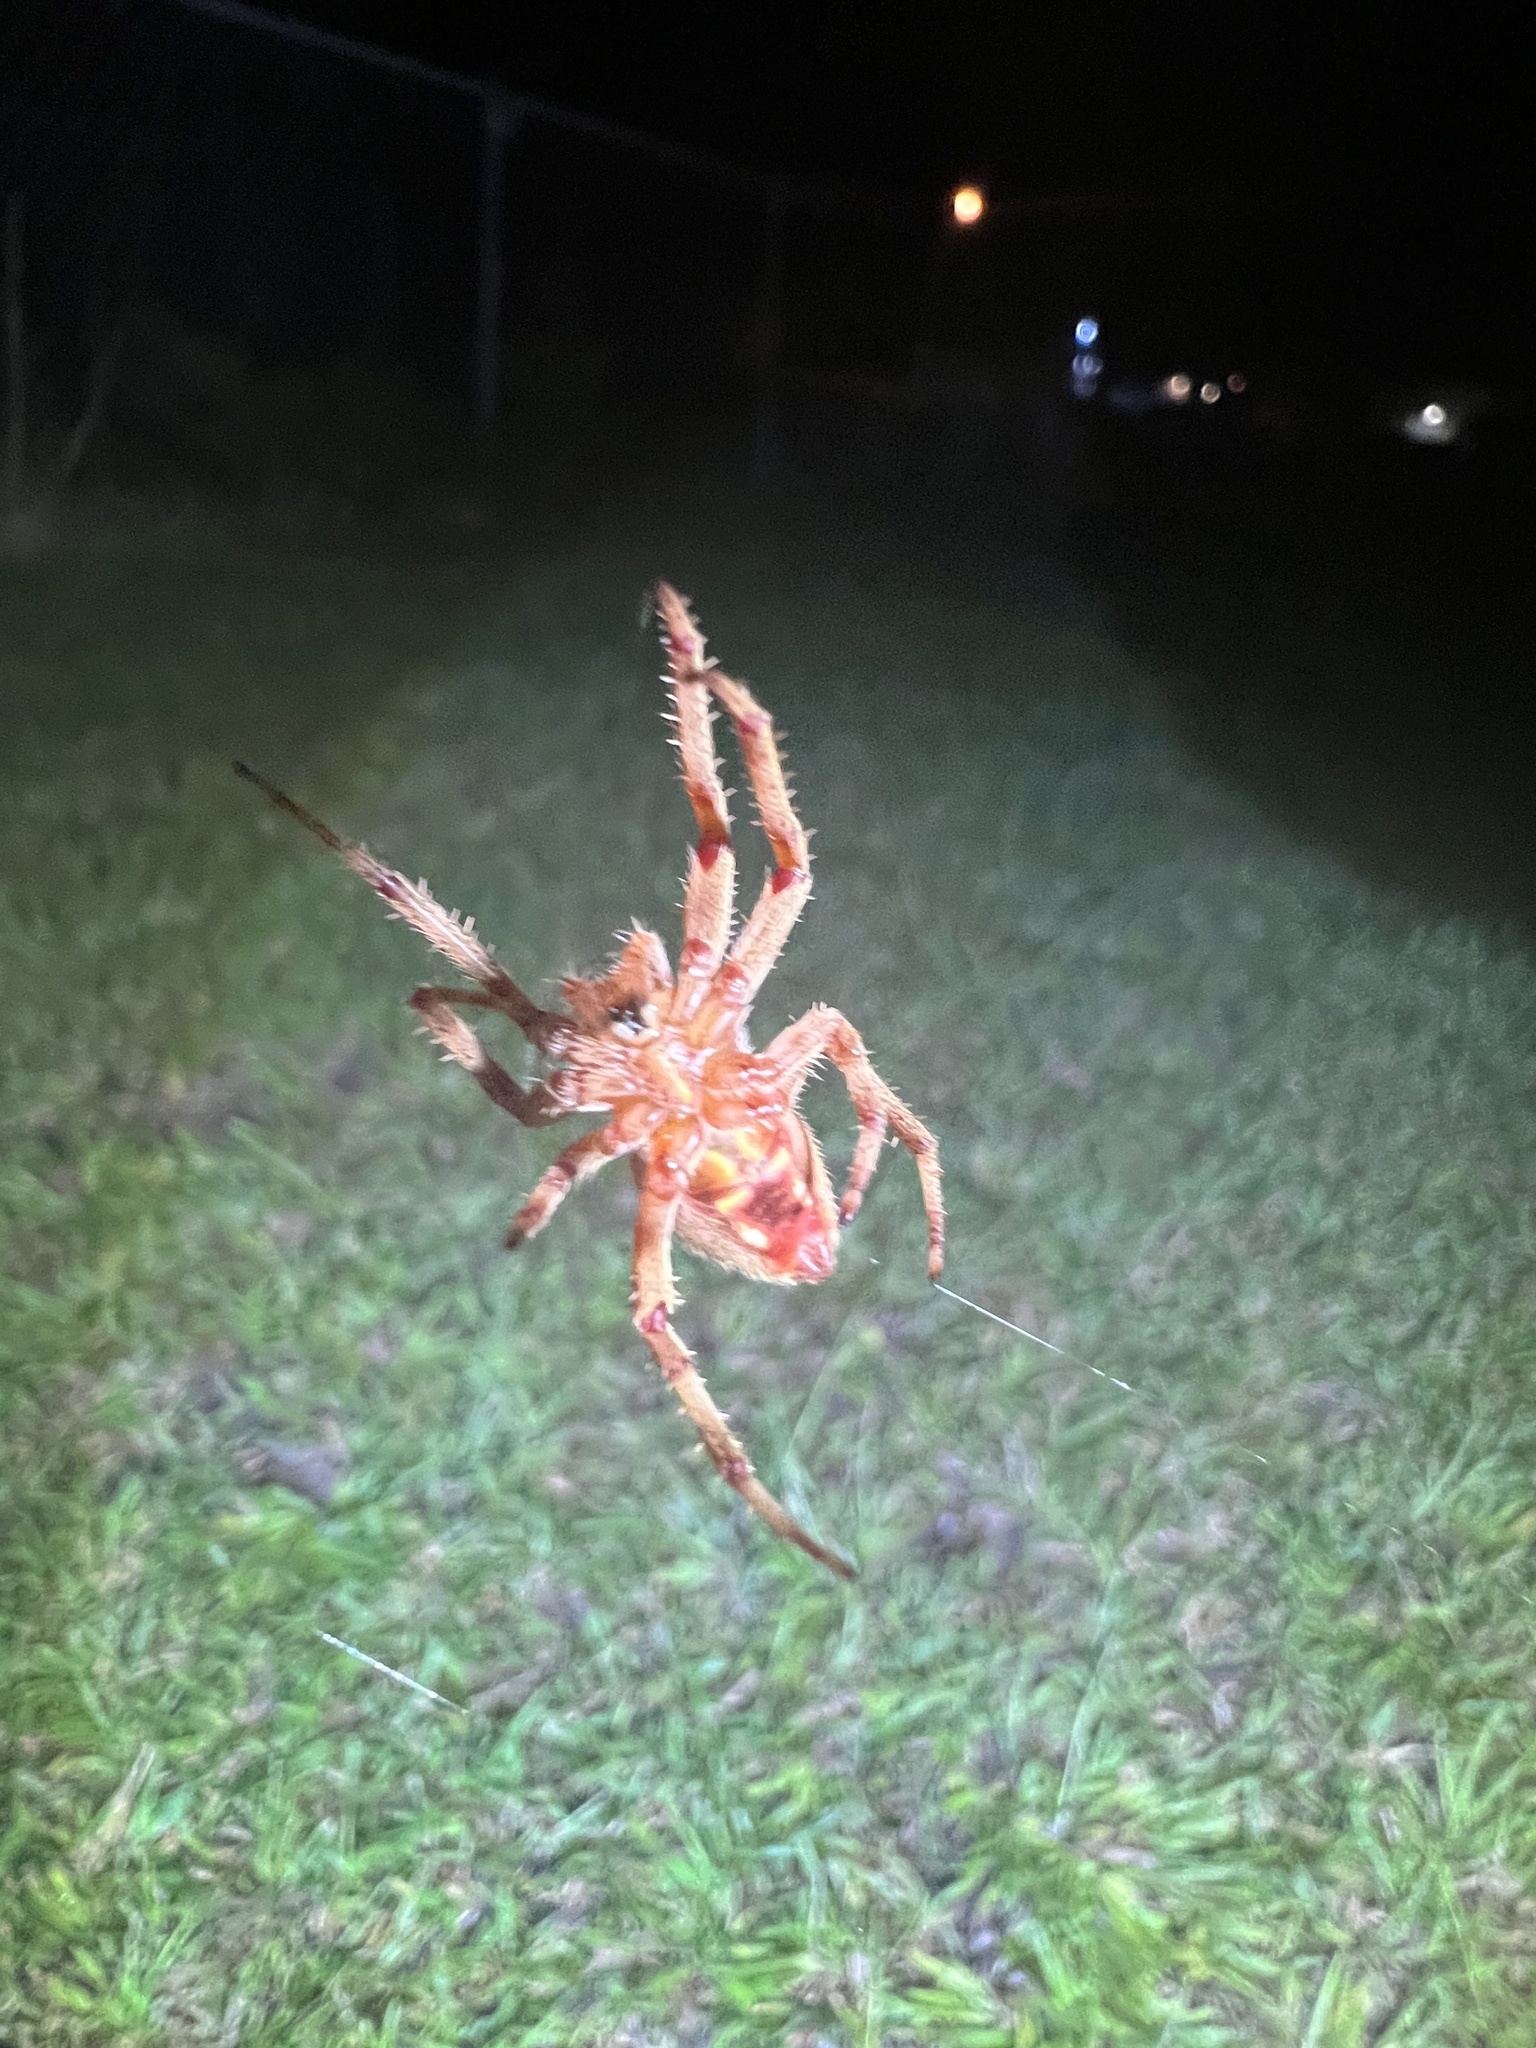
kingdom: Animalia
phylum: Arthropoda
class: Arachnida
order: Araneae
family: Araneidae
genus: Neoscona
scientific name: Neoscona crucifera
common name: Spotted orbweaver
